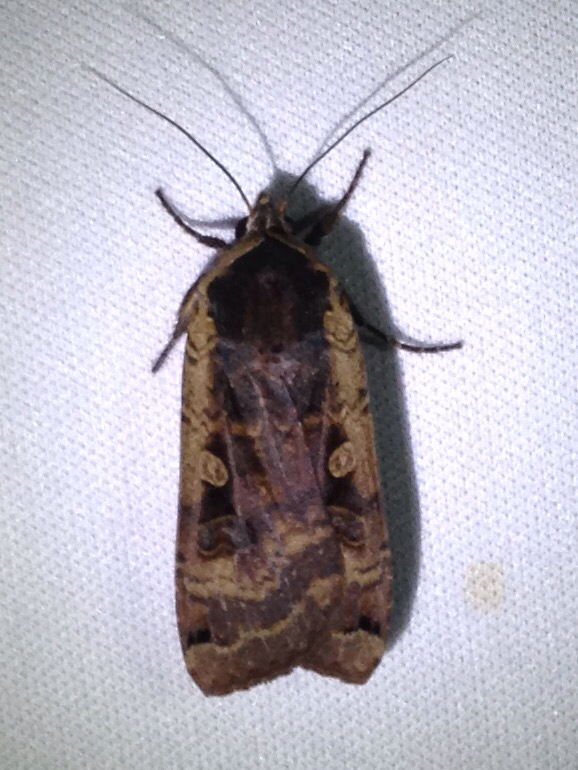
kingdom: Animalia
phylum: Arthropoda
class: Insecta
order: Lepidoptera
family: Noctuidae
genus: Noctua
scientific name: Noctua pronuba
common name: Large yellow underwing
